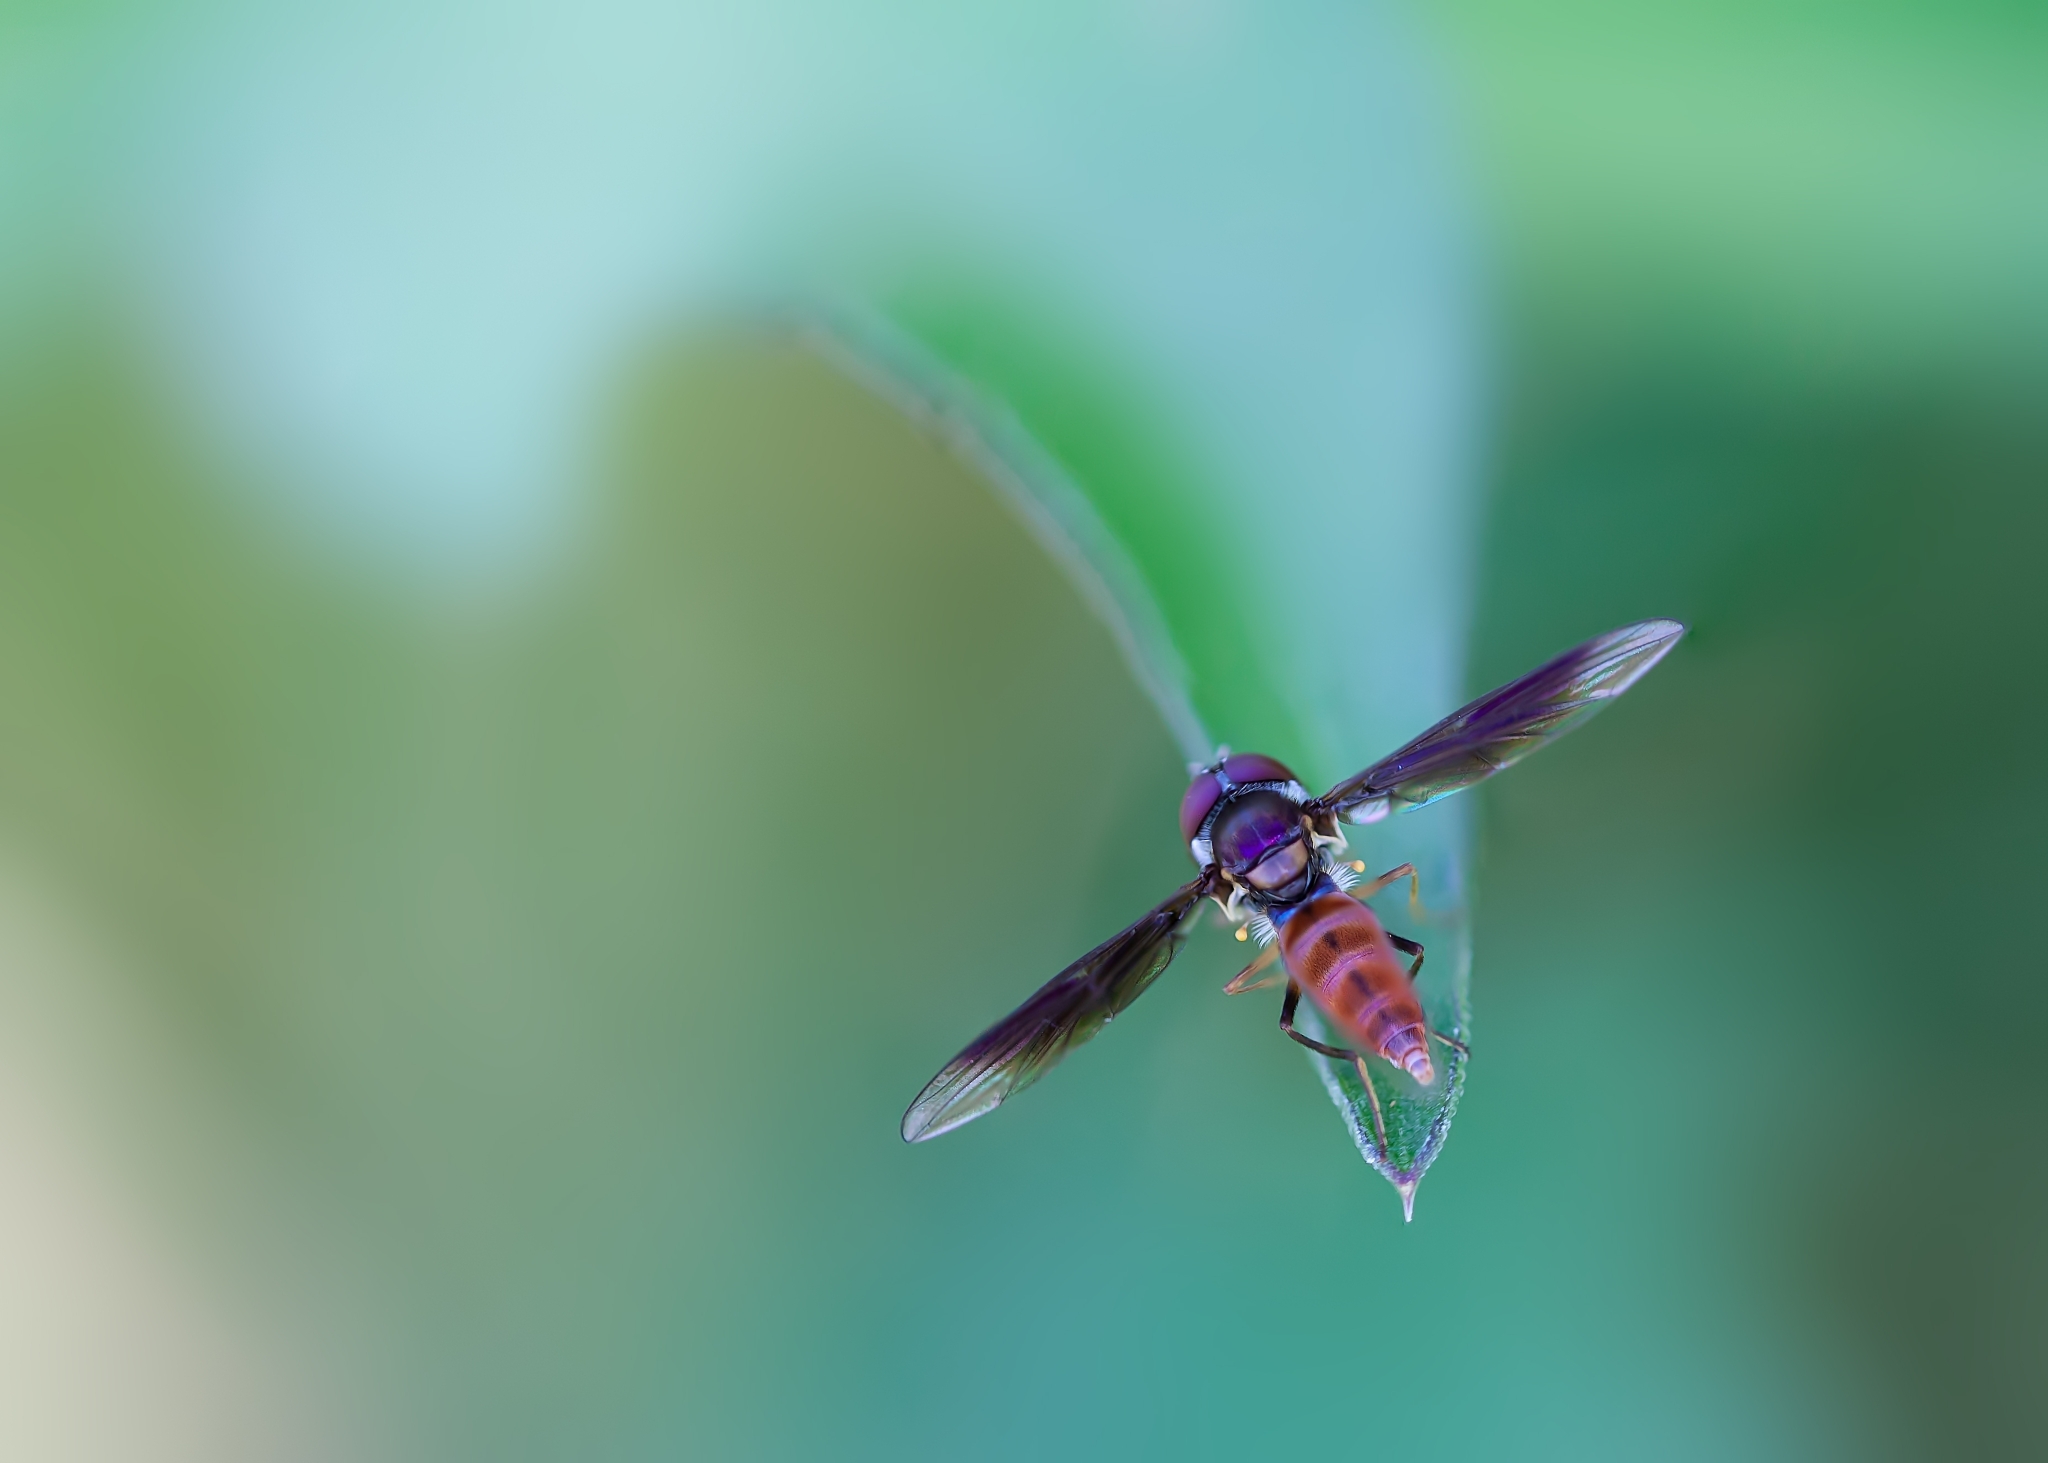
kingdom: Animalia
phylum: Arthropoda
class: Insecta
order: Diptera
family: Syrphidae
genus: Ocyptamus
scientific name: Ocyptamus antiphates
